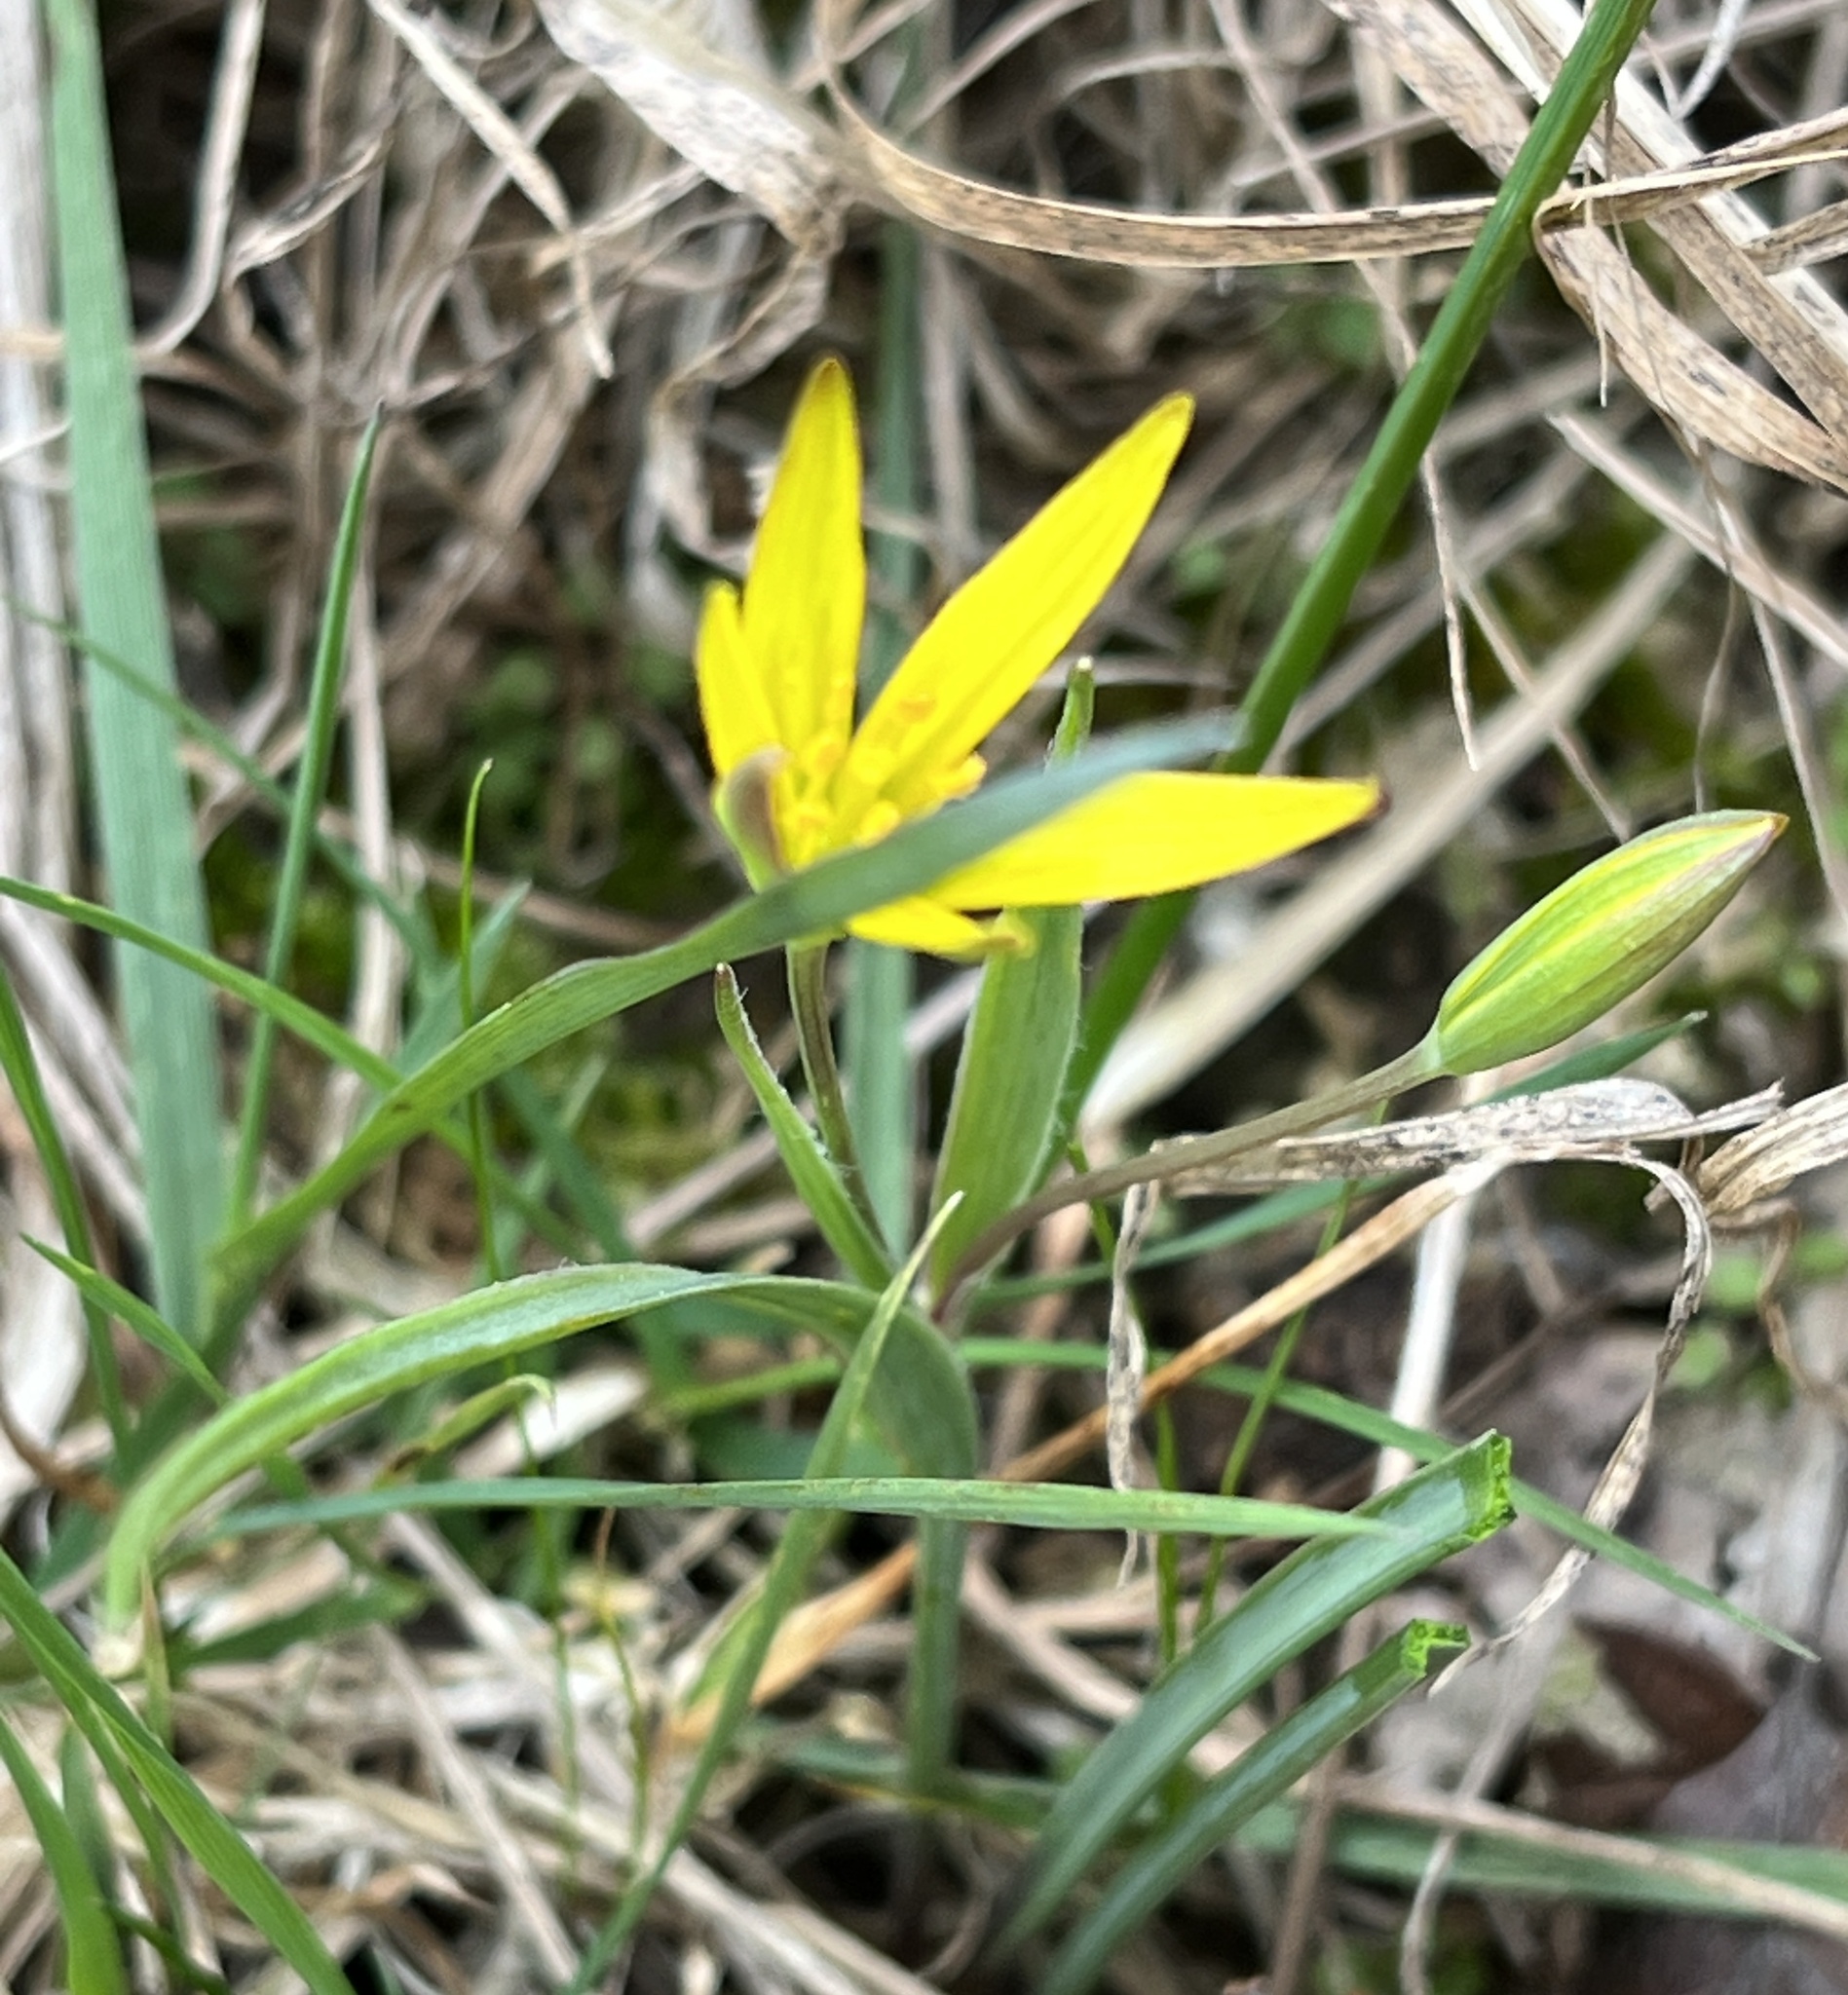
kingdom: Plantae
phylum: Tracheophyta
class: Liliopsida
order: Liliales
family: Liliaceae
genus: Gagea
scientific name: Gagea pratensis
